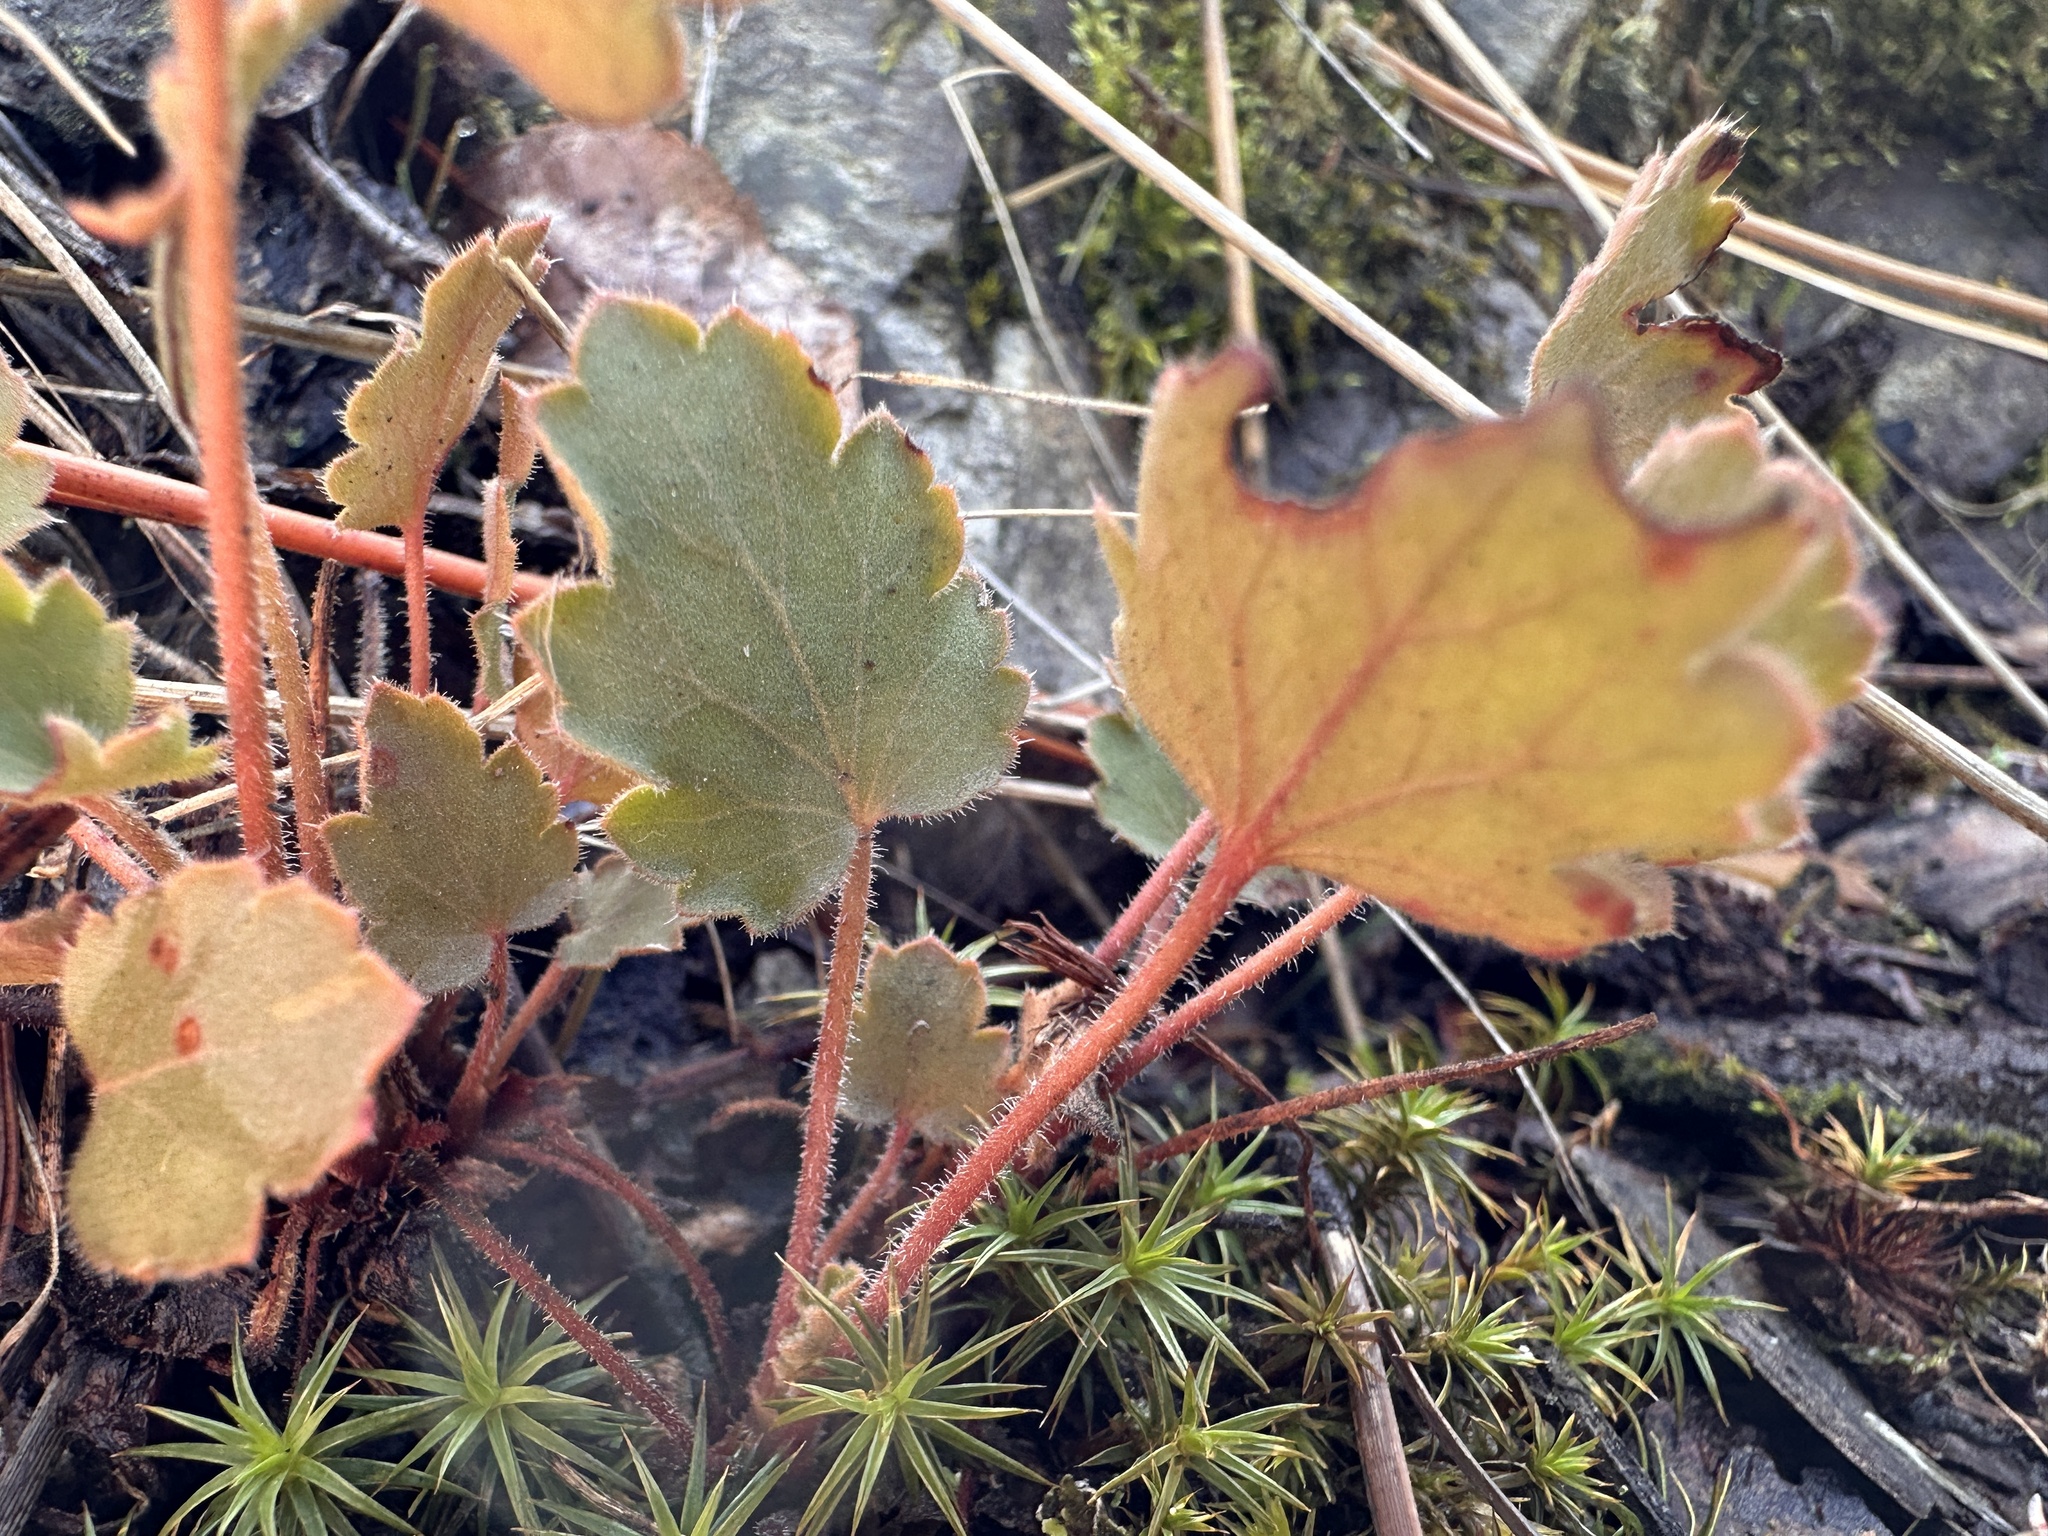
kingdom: Plantae
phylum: Tracheophyta
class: Magnoliopsida
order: Saxifragales
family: Saxifragaceae
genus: Heuchera
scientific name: Heuchera cylindrica
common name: Mat alumroot
